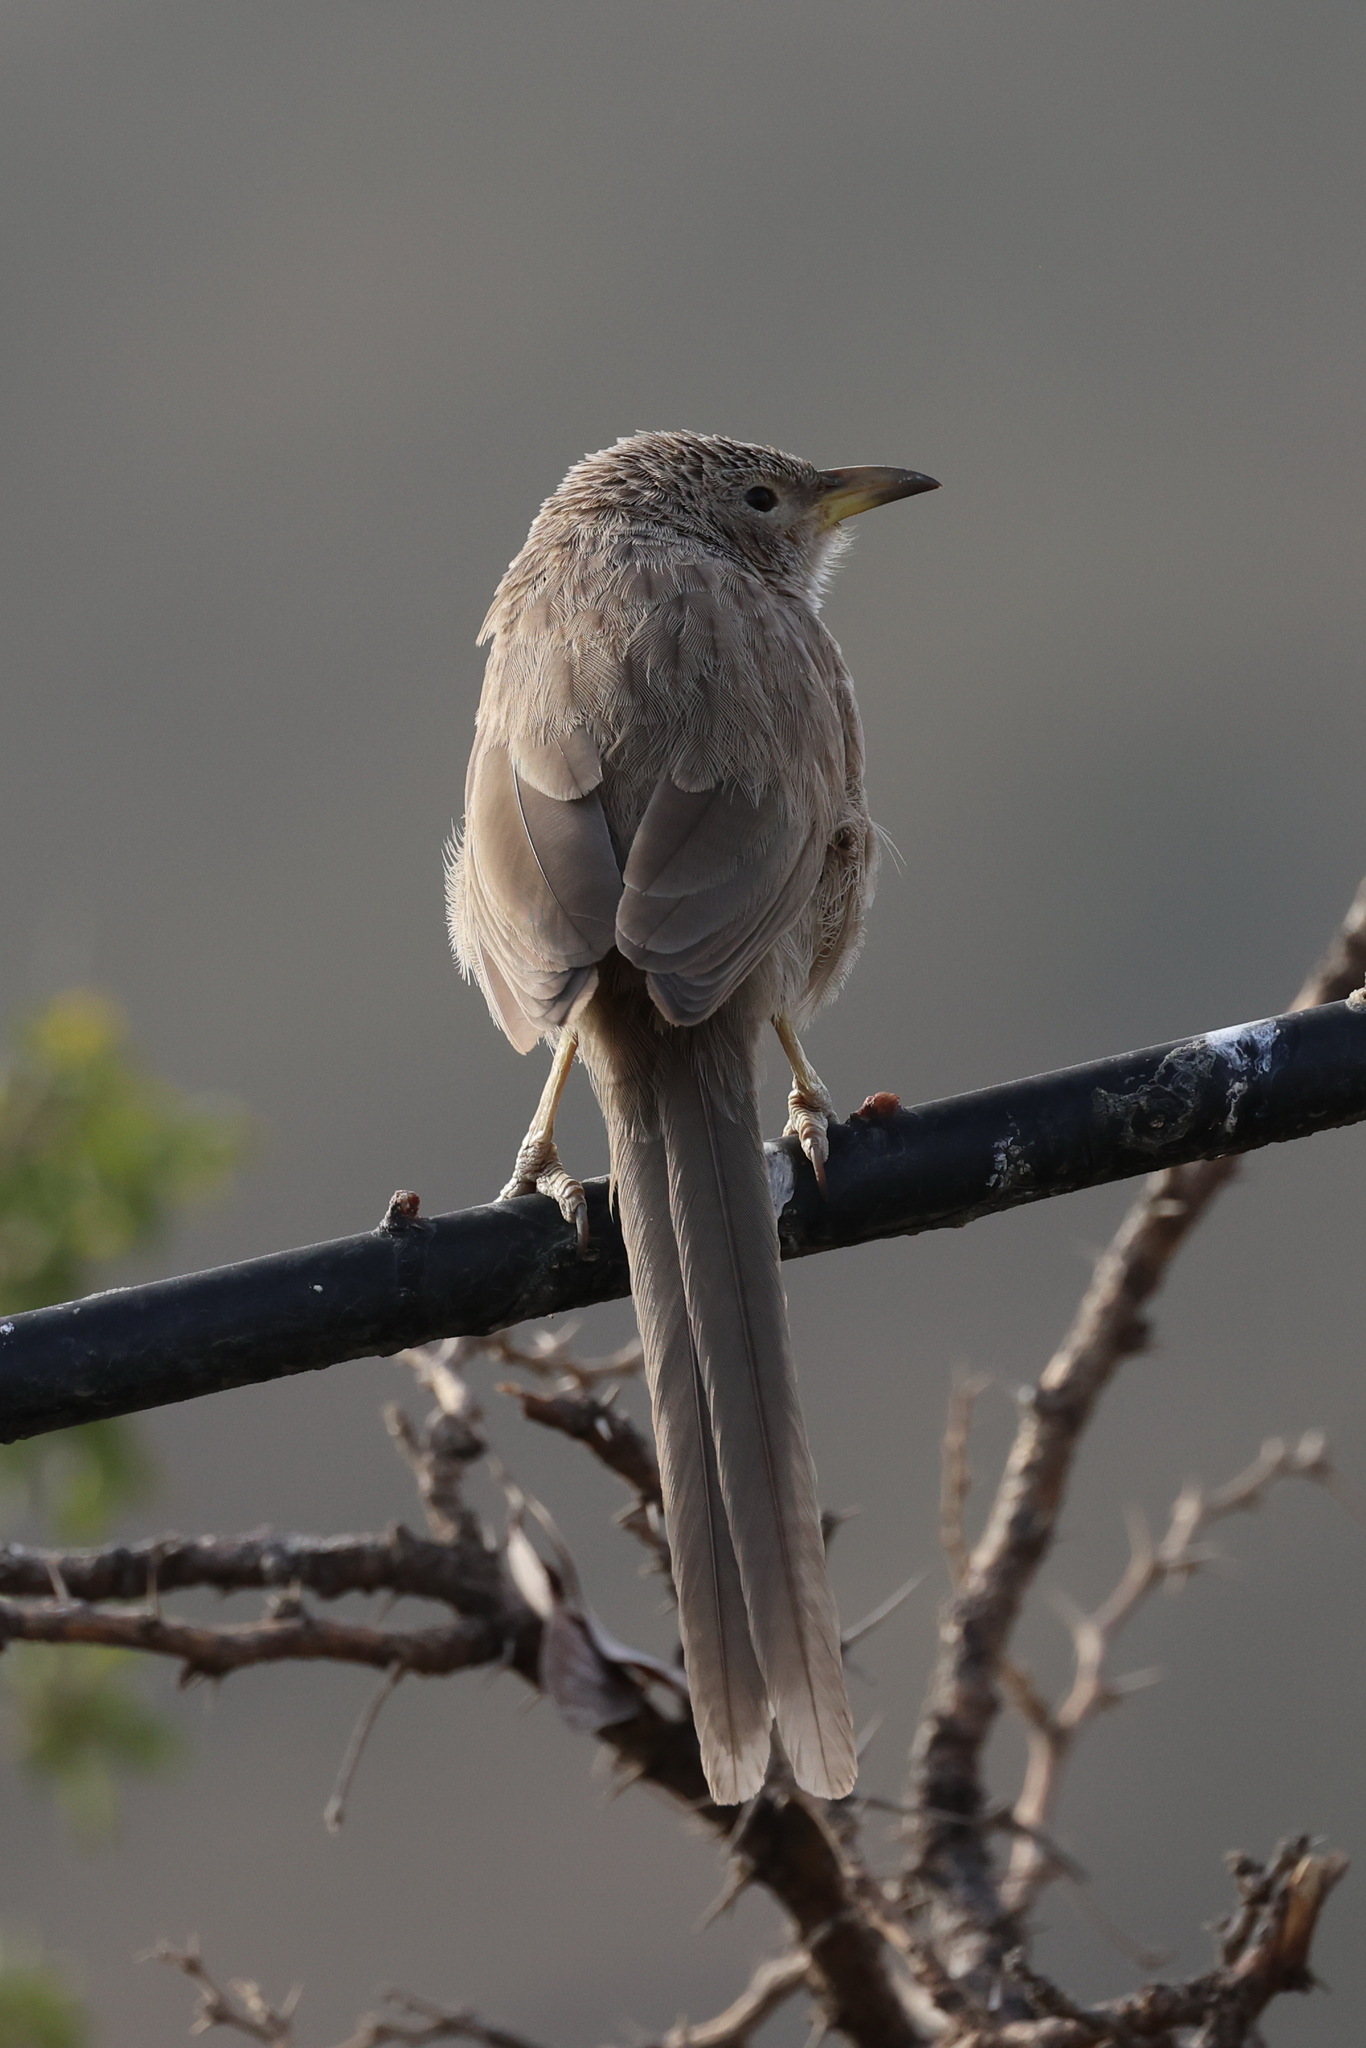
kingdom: Animalia
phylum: Chordata
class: Aves
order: Passeriformes
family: Leiothrichidae
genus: Turdoides
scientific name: Turdoides squamiceps
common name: Arabian babbler
